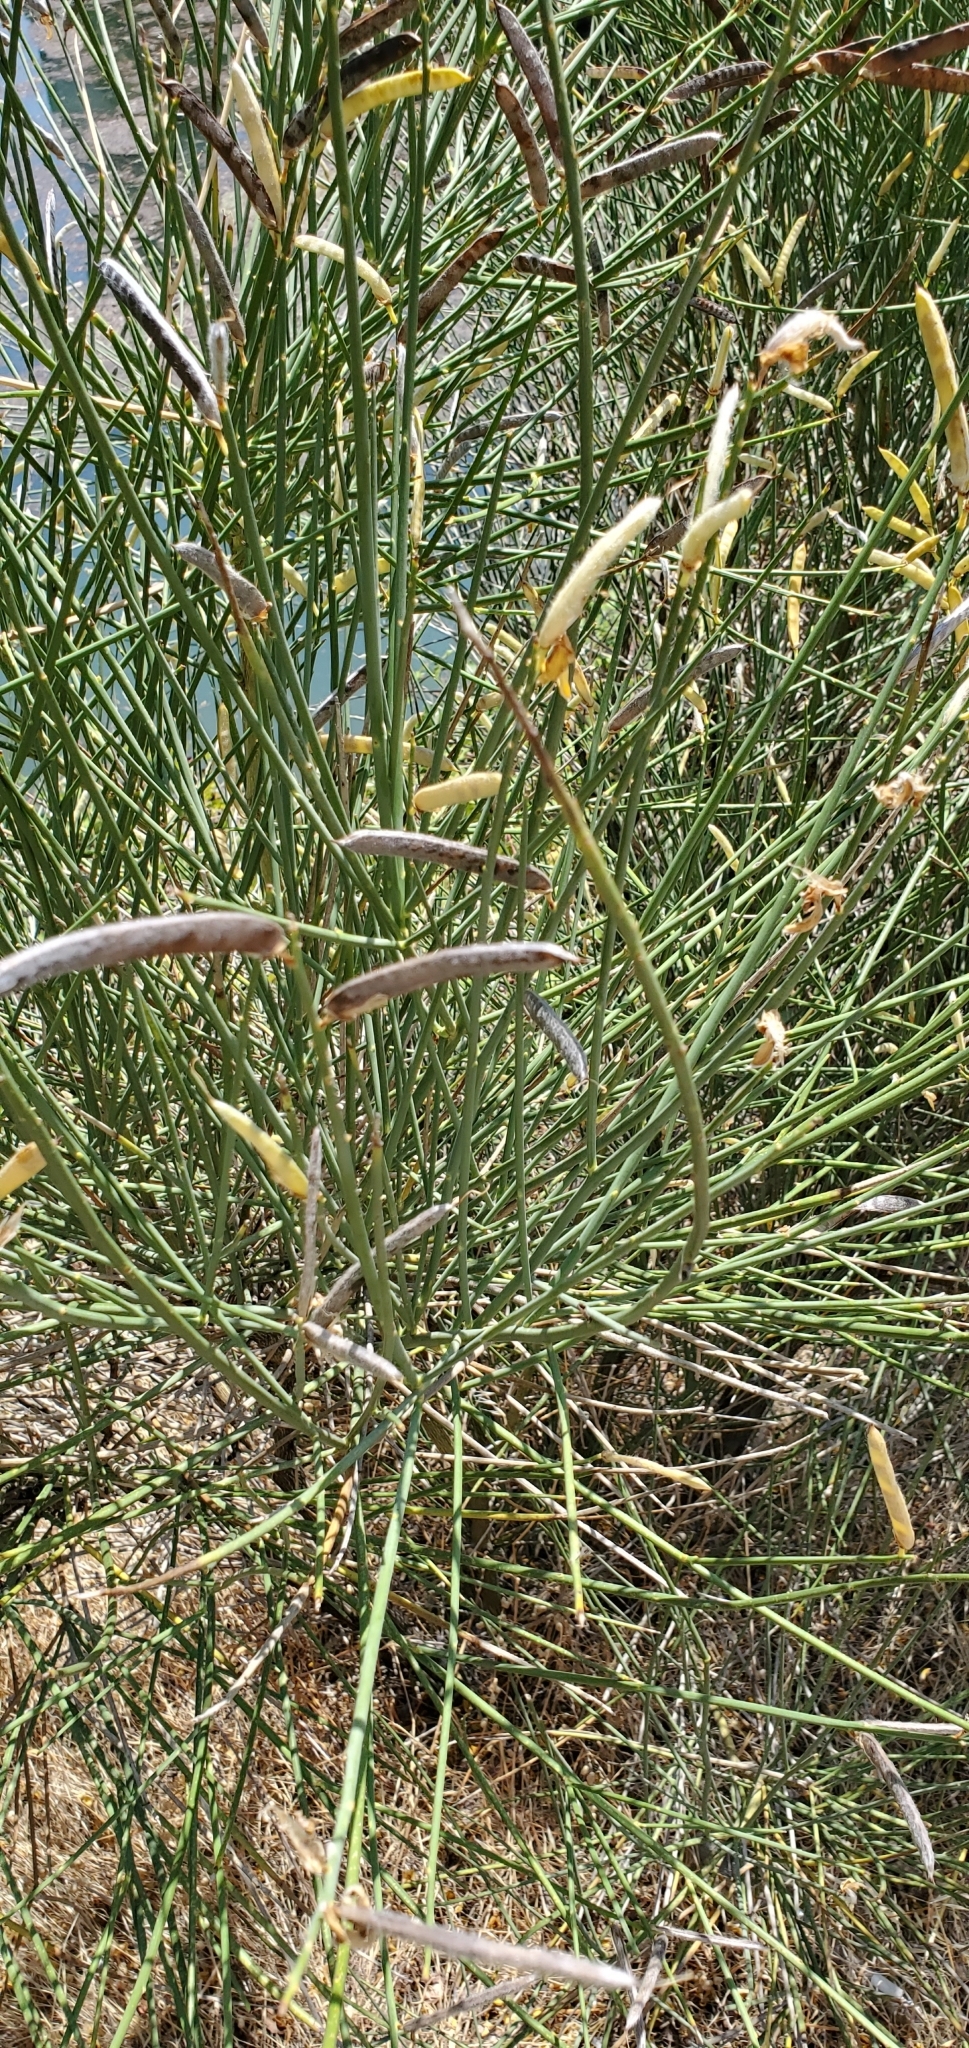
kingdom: Plantae
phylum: Tracheophyta
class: Magnoliopsida
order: Fabales
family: Fabaceae
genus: Spartium
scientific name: Spartium junceum
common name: Spanish broom
